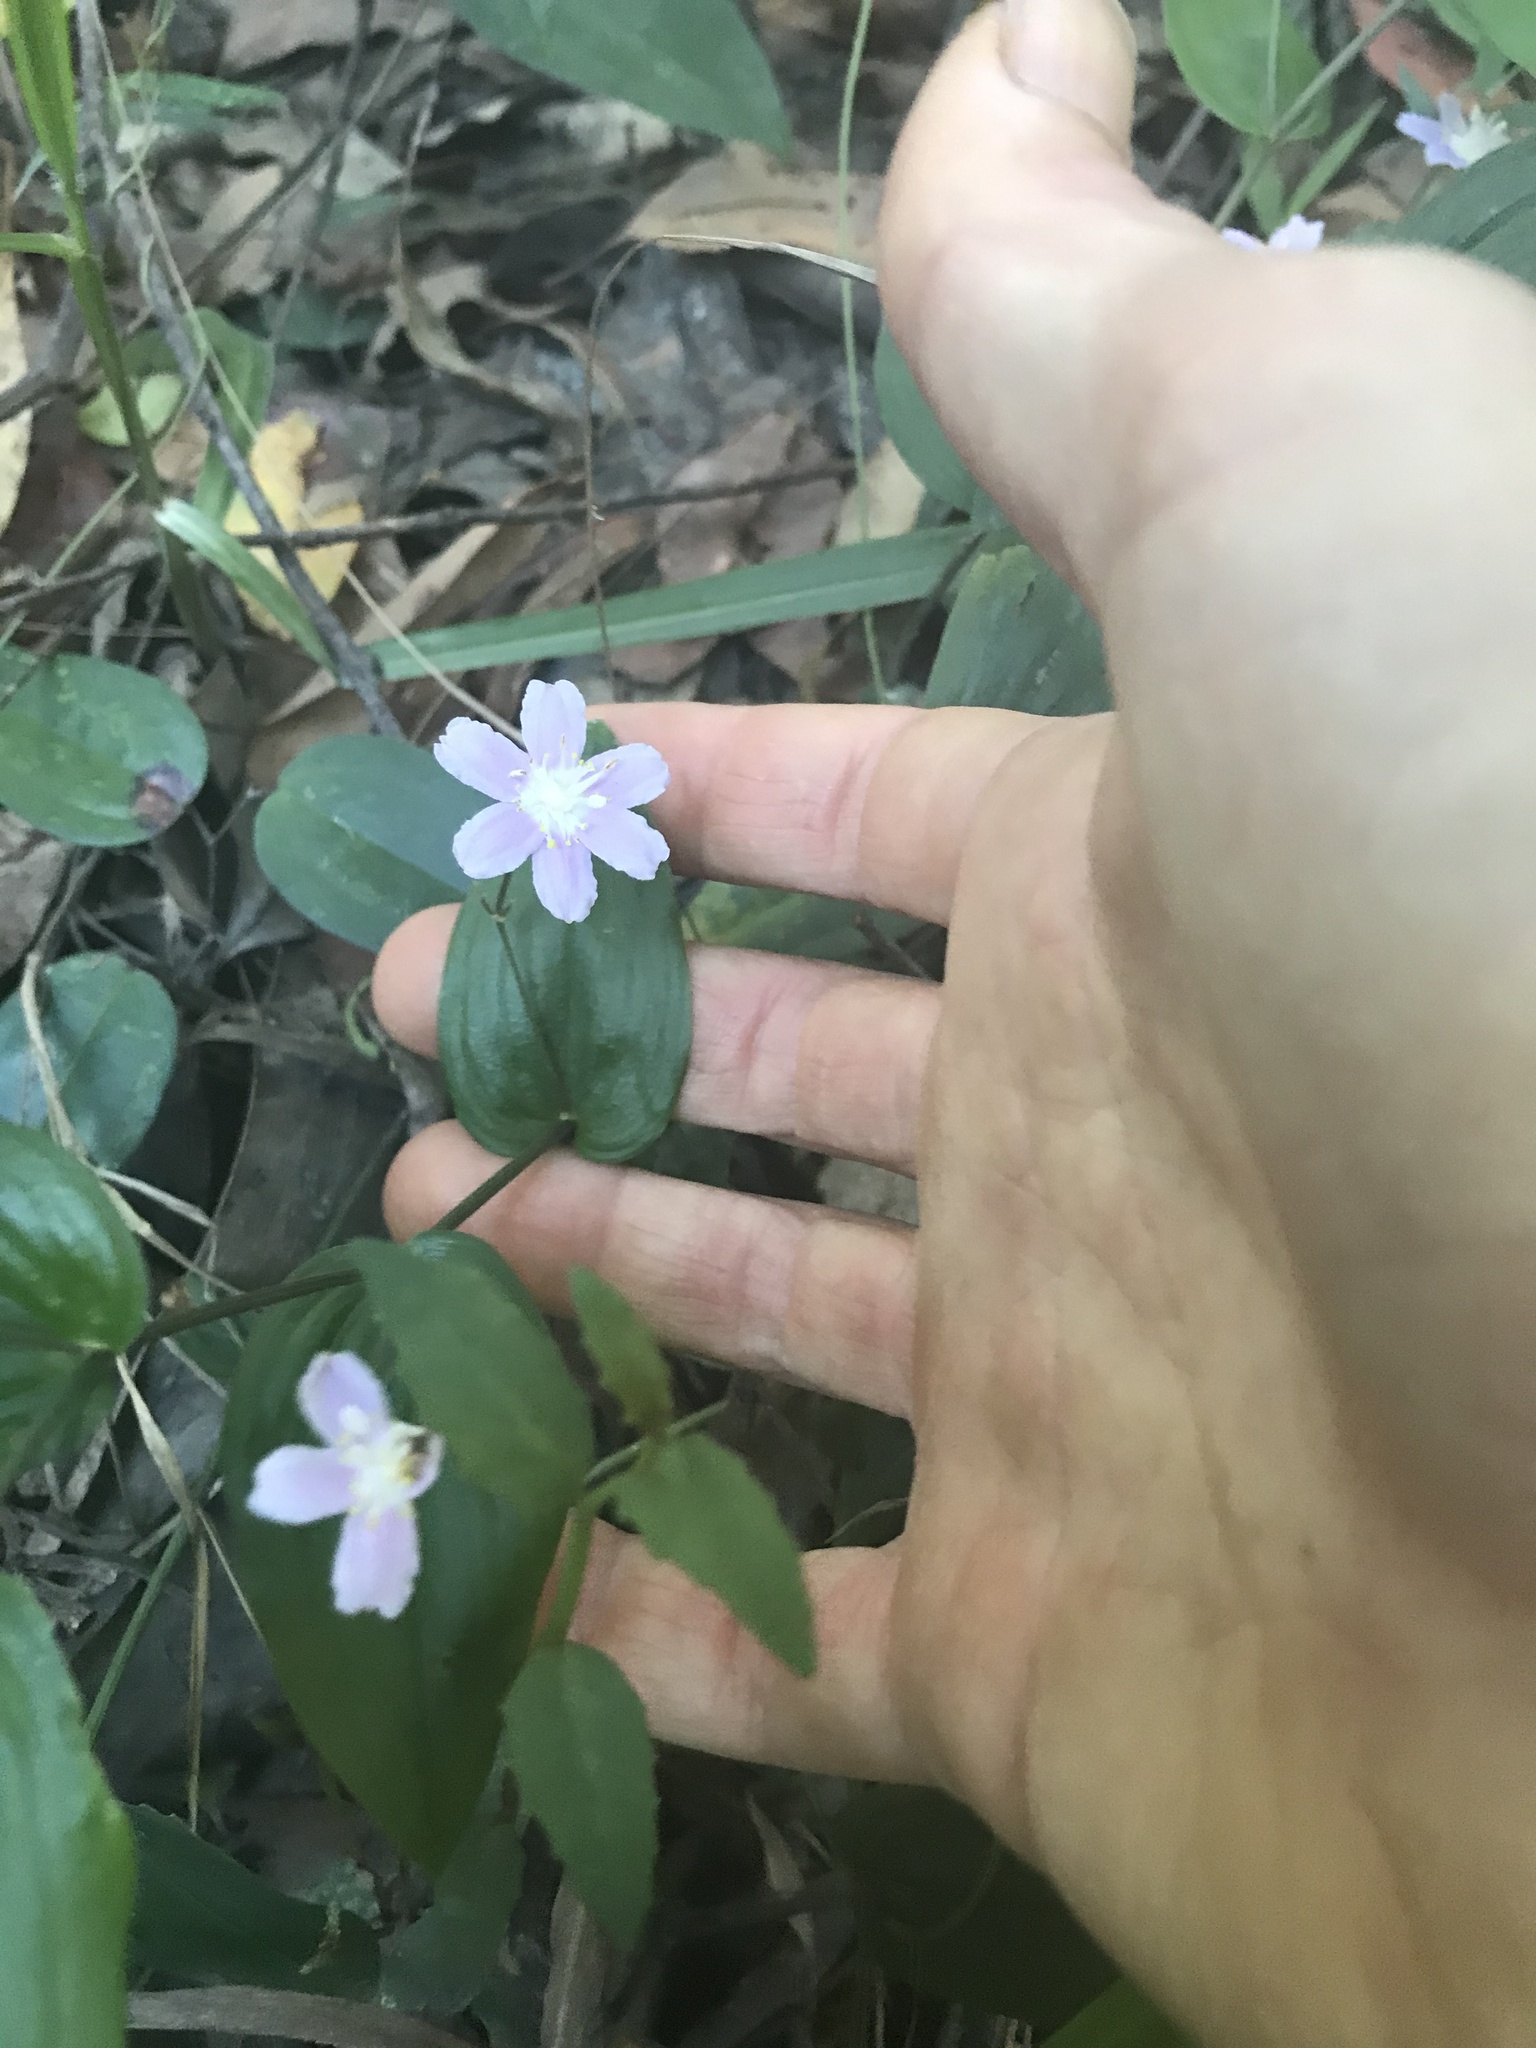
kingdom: Plantae
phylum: Tracheophyta
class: Liliopsida
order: Liliales
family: Colchicaceae
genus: Tripladenia
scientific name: Tripladenia cunninghamii
